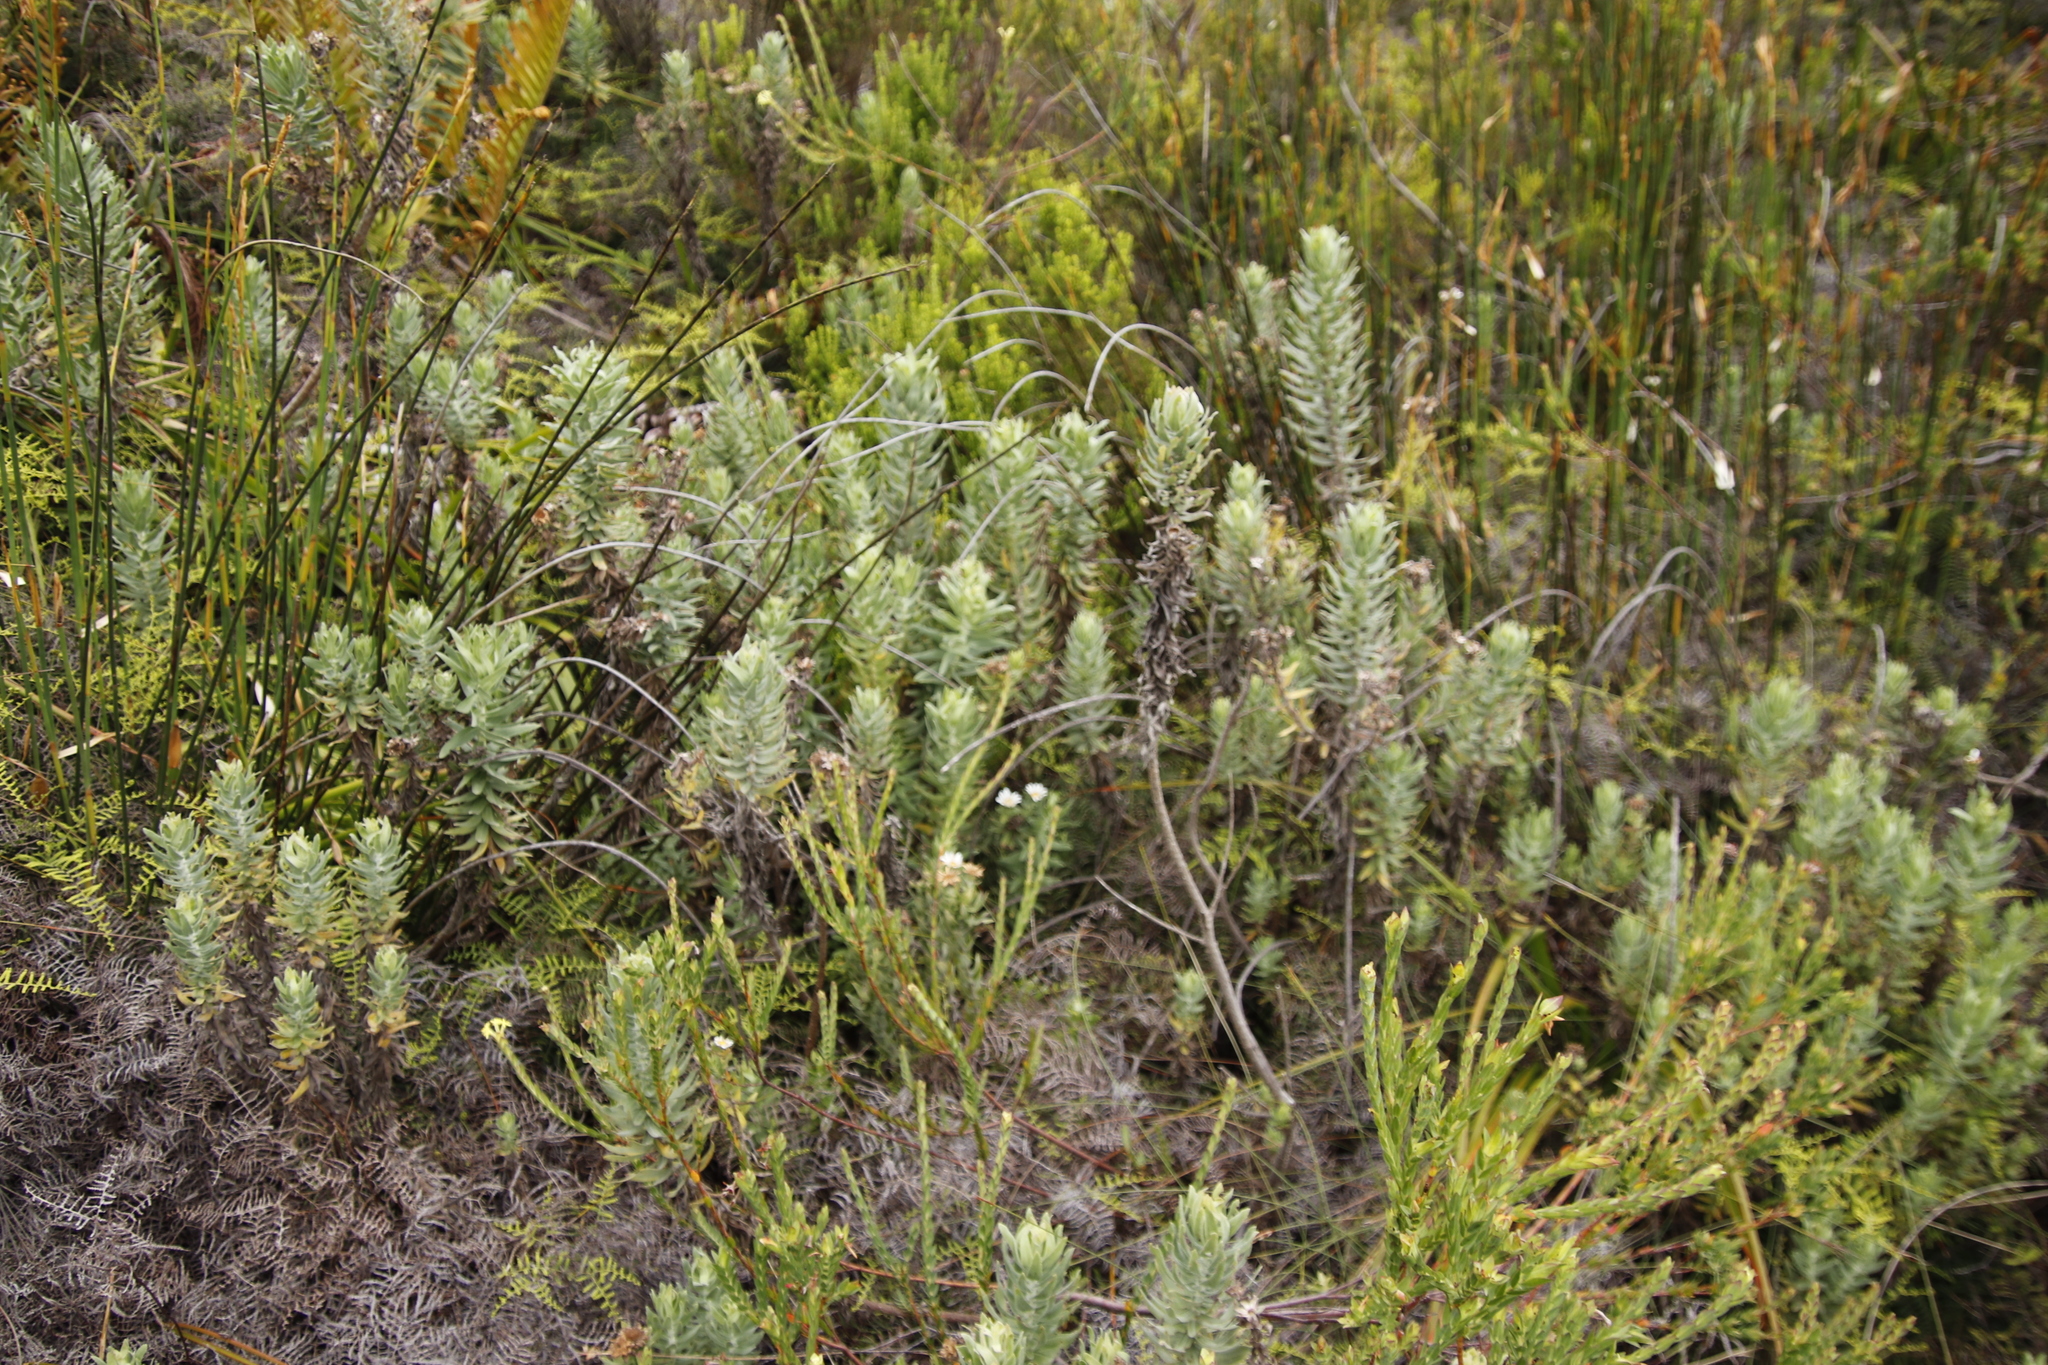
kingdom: Plantae
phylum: Tracheophyta
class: Magnoliopsida
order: Malvales
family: Thymelaeaceae
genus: Gnidia
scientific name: Gnidia oppositifolia
